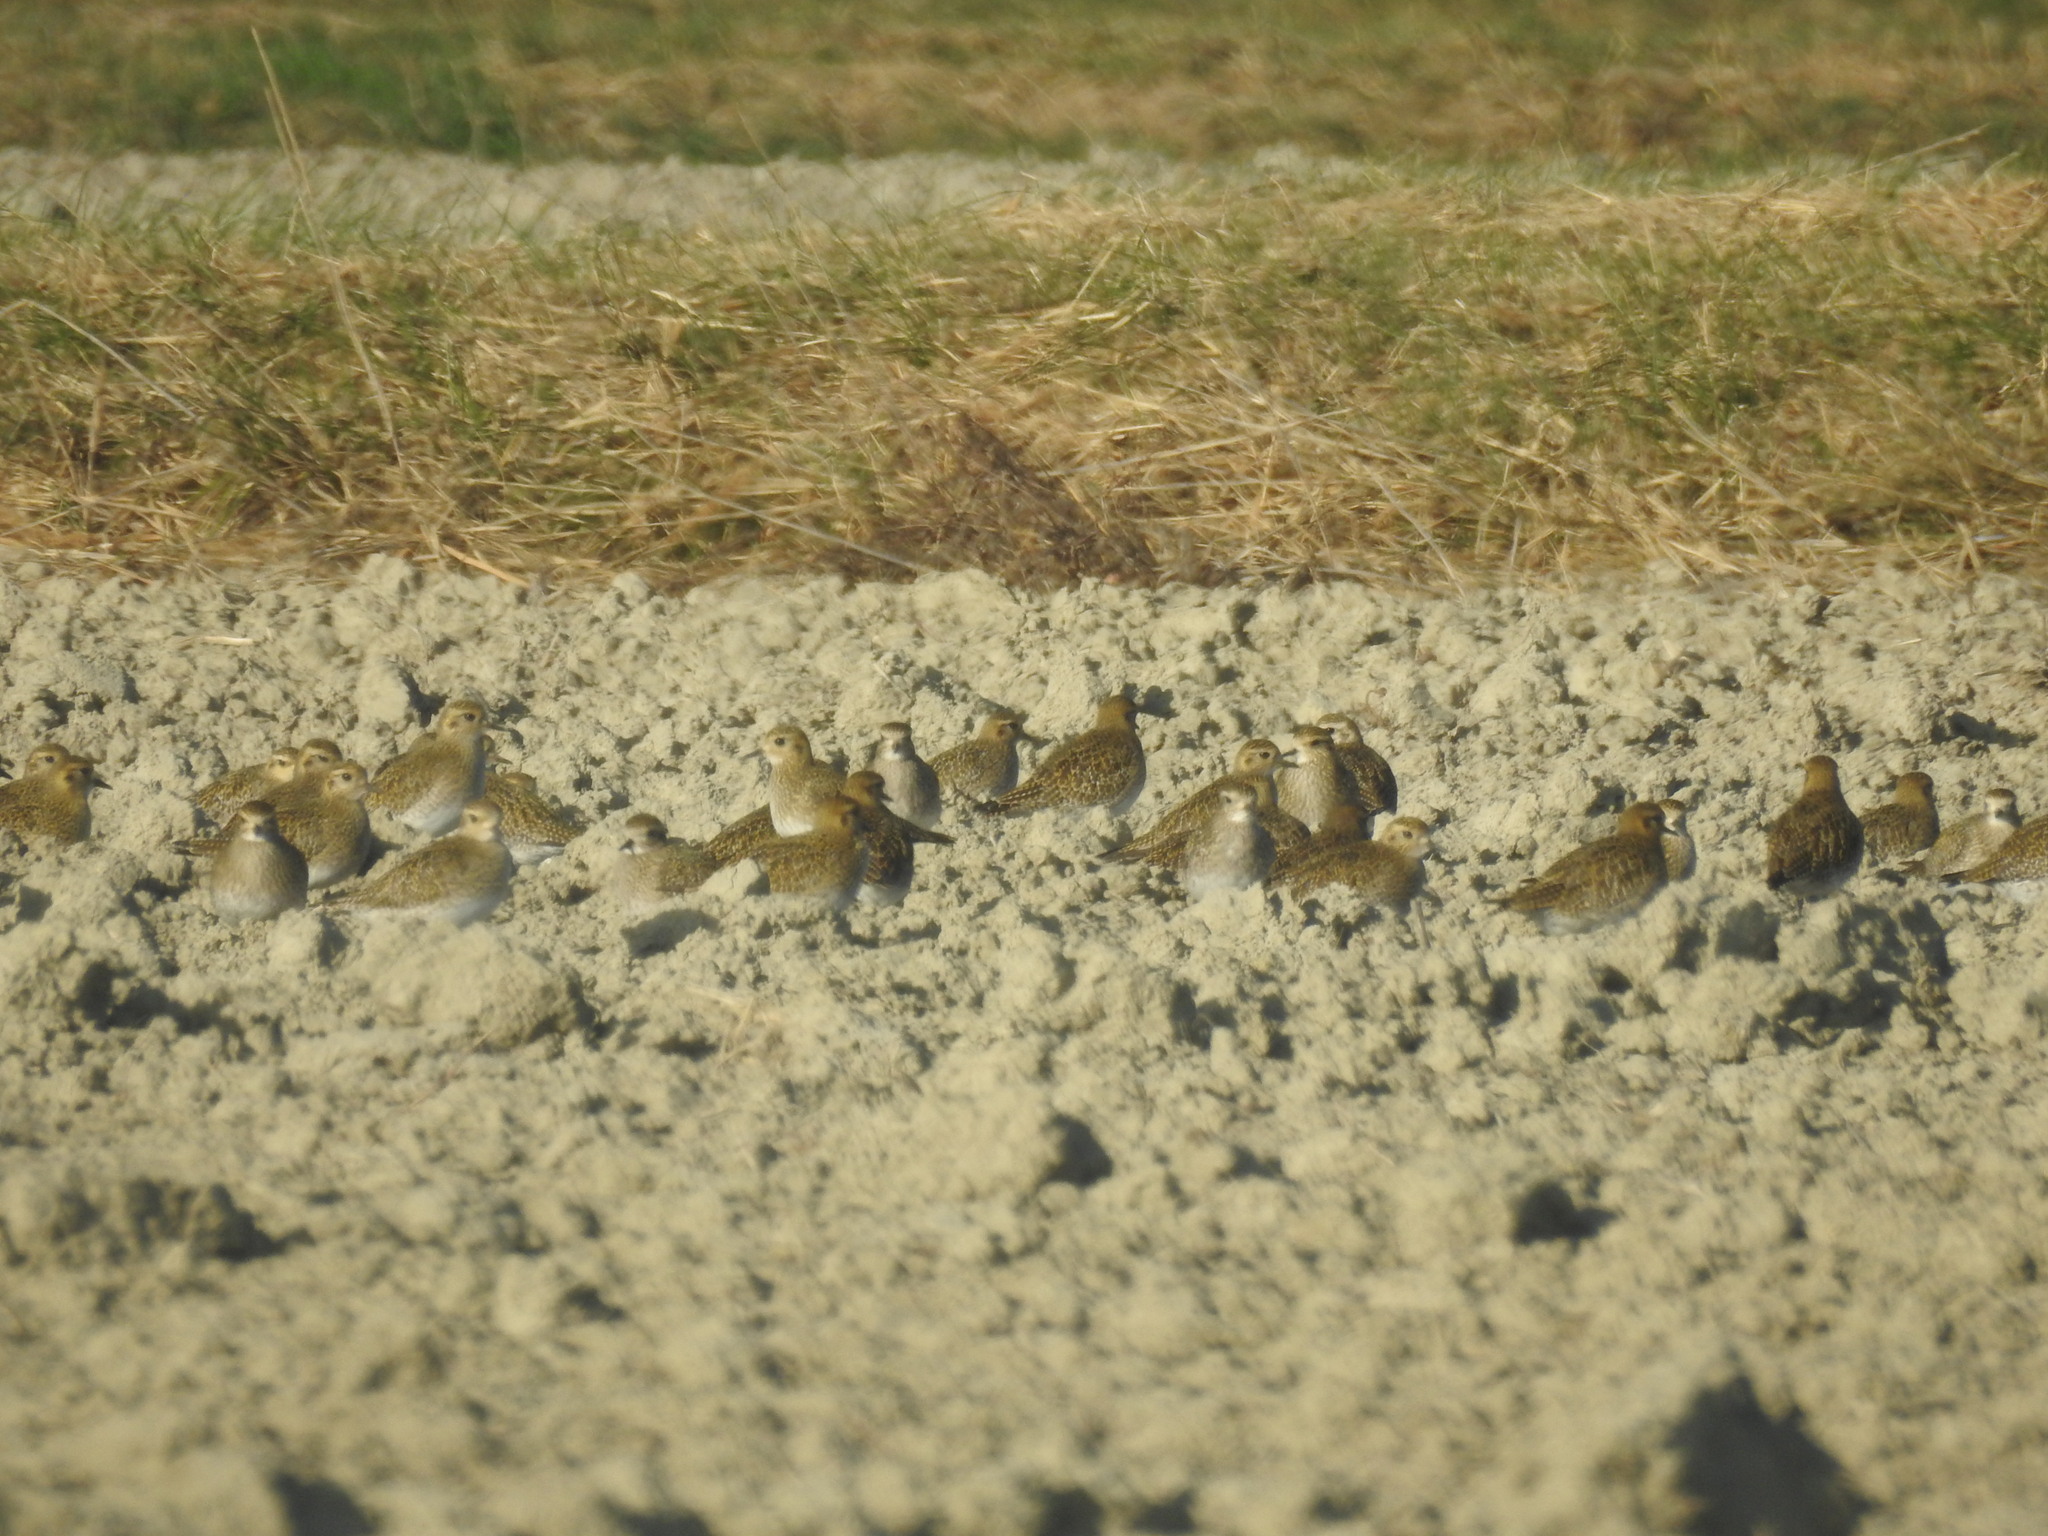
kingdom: Animalia
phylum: Chordata
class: Aves
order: Charadriiformes
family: Charadriidae
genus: Pluvialis
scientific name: Pluvialis apricaria
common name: European golden plover
